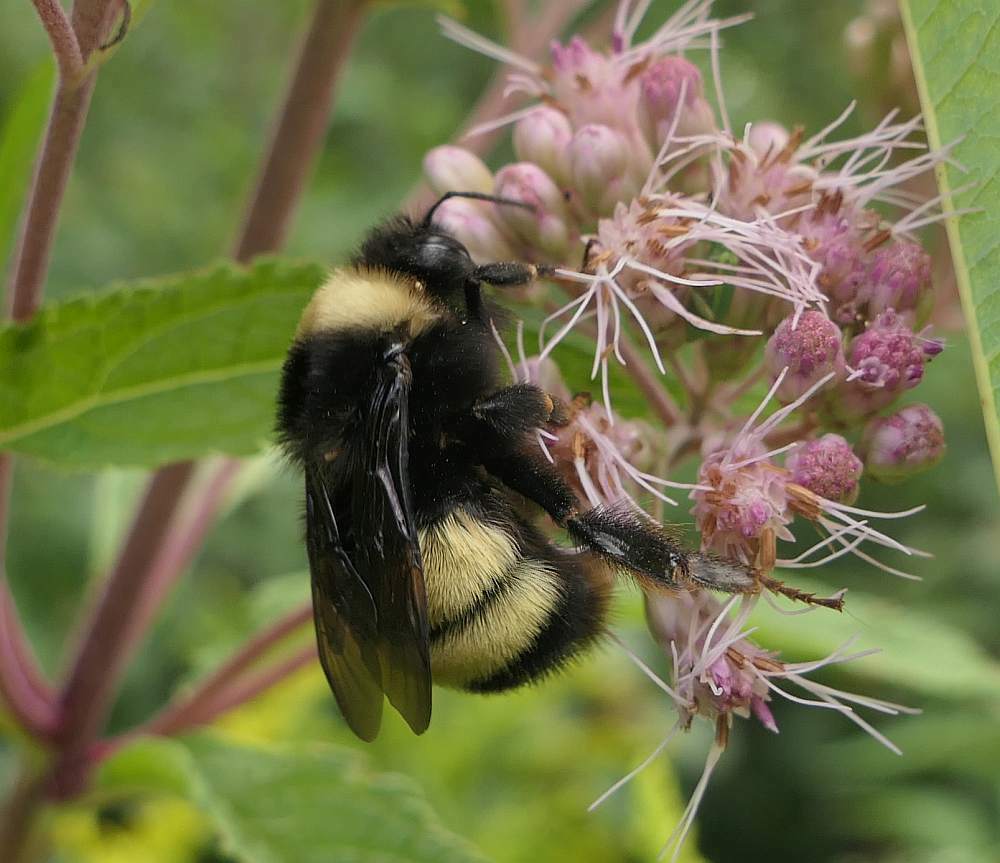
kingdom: Animalia
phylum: Arthropoda
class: Insecta
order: Hymenoptera
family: Apidae
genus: Bombus
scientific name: Bombus terricola
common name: Yellow-banded bumble bee
